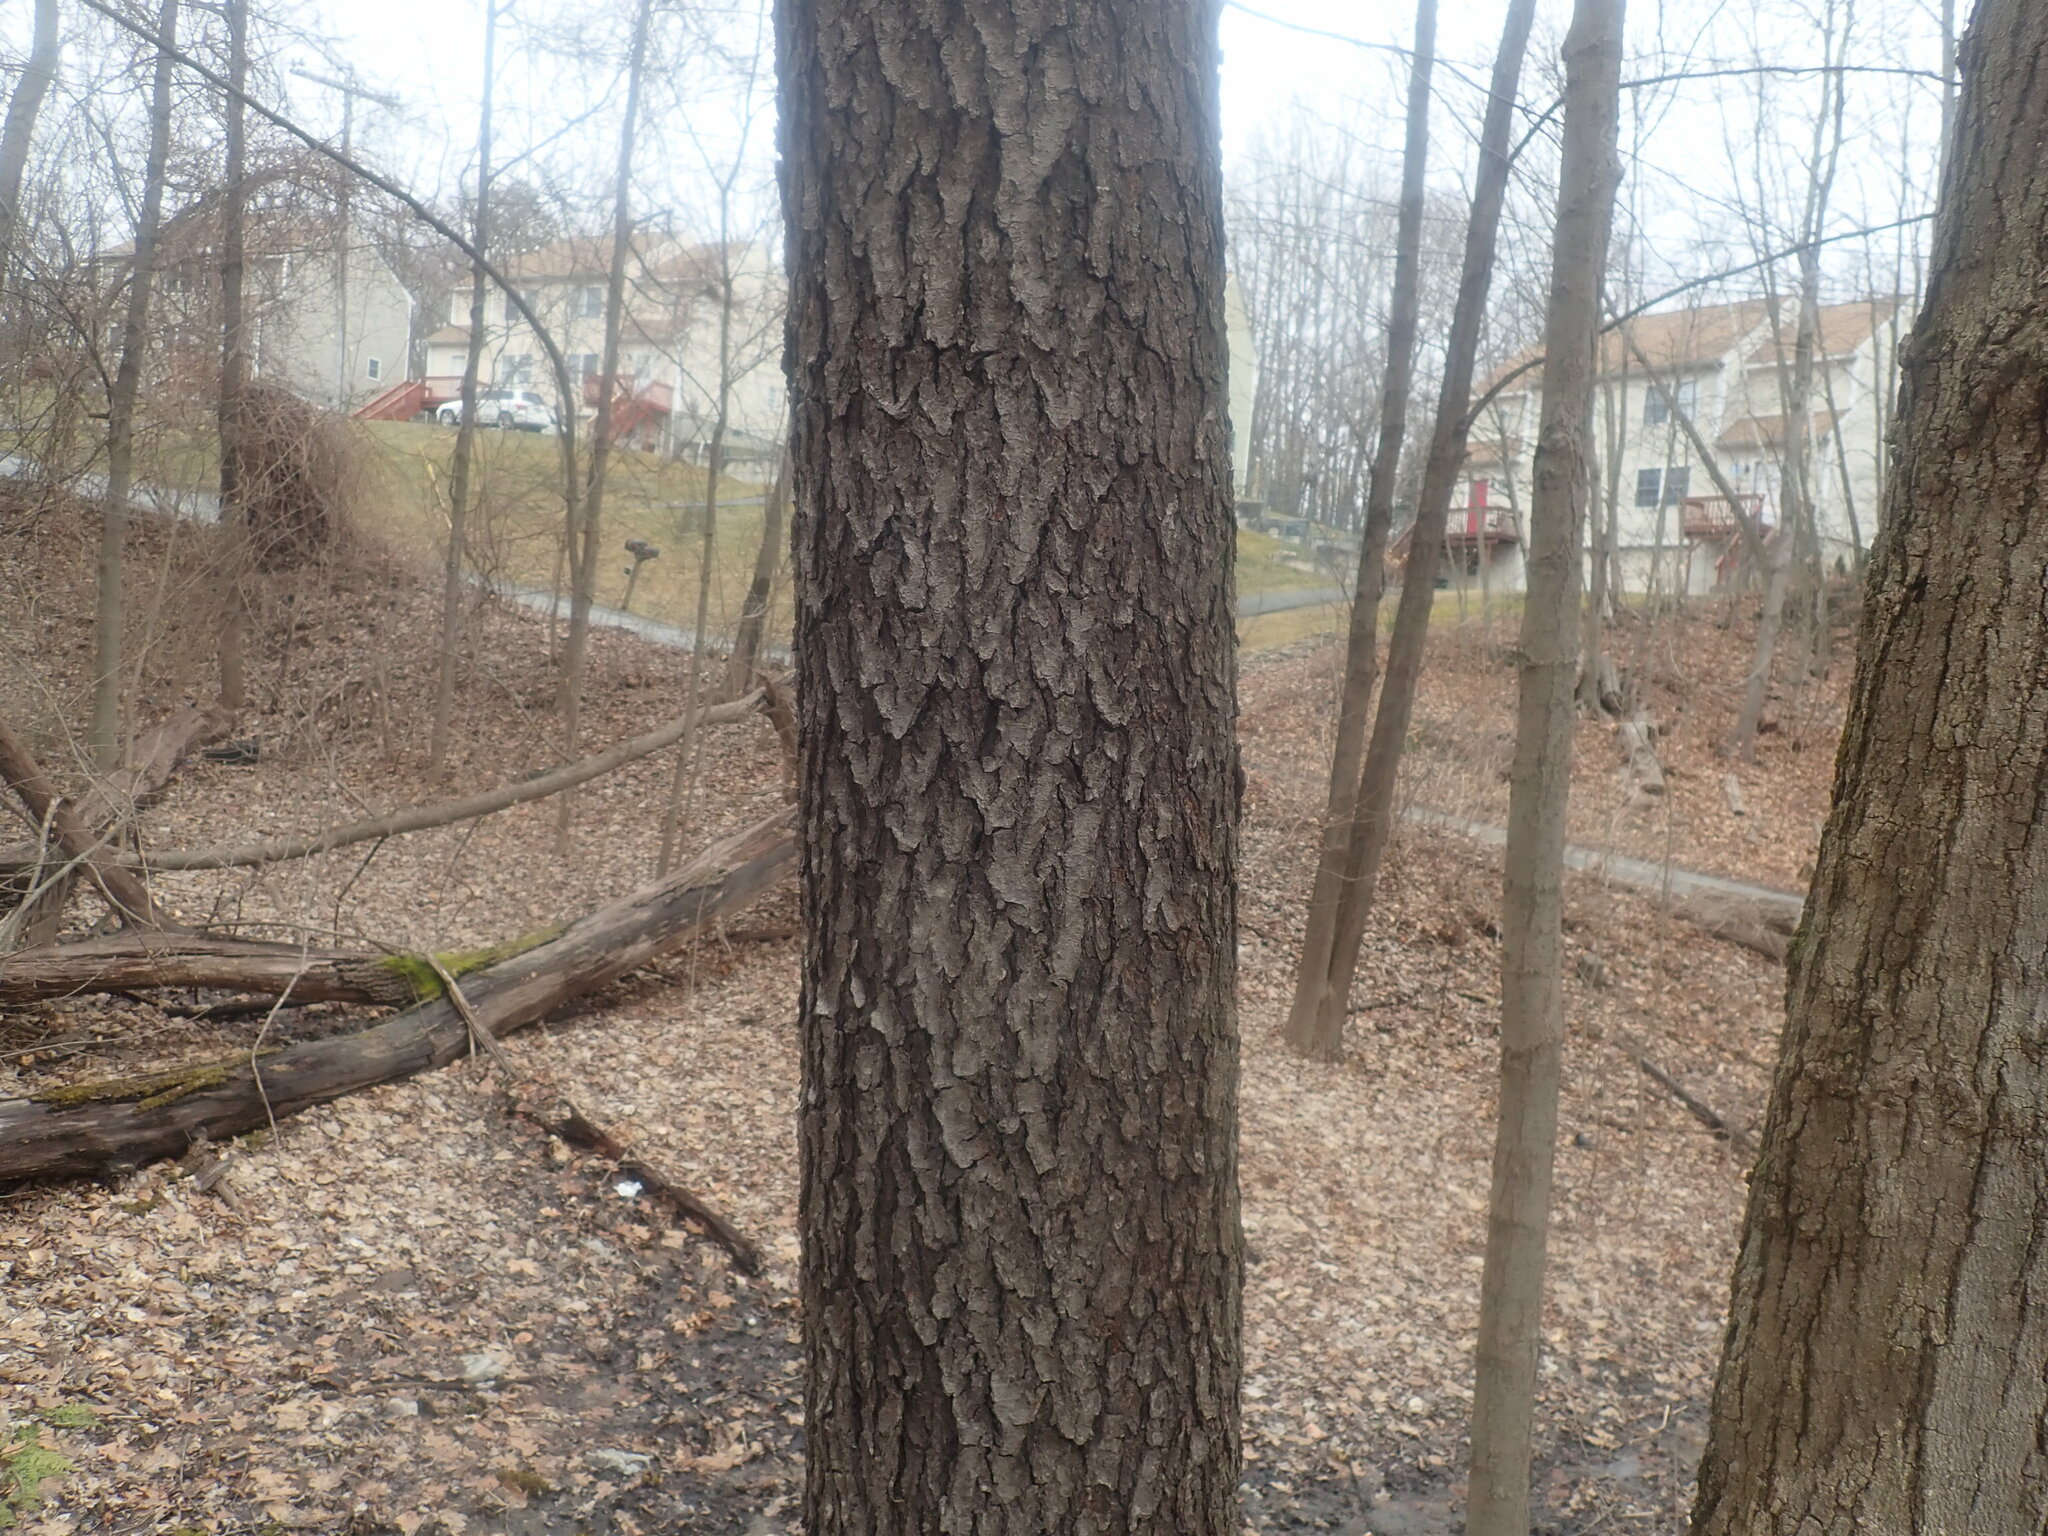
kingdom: Plantae
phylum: Tracheophyta
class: Magnoliopsida
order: Rosales
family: Rosaceae
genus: Prunus
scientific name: Prunus serotina
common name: Black cherry
